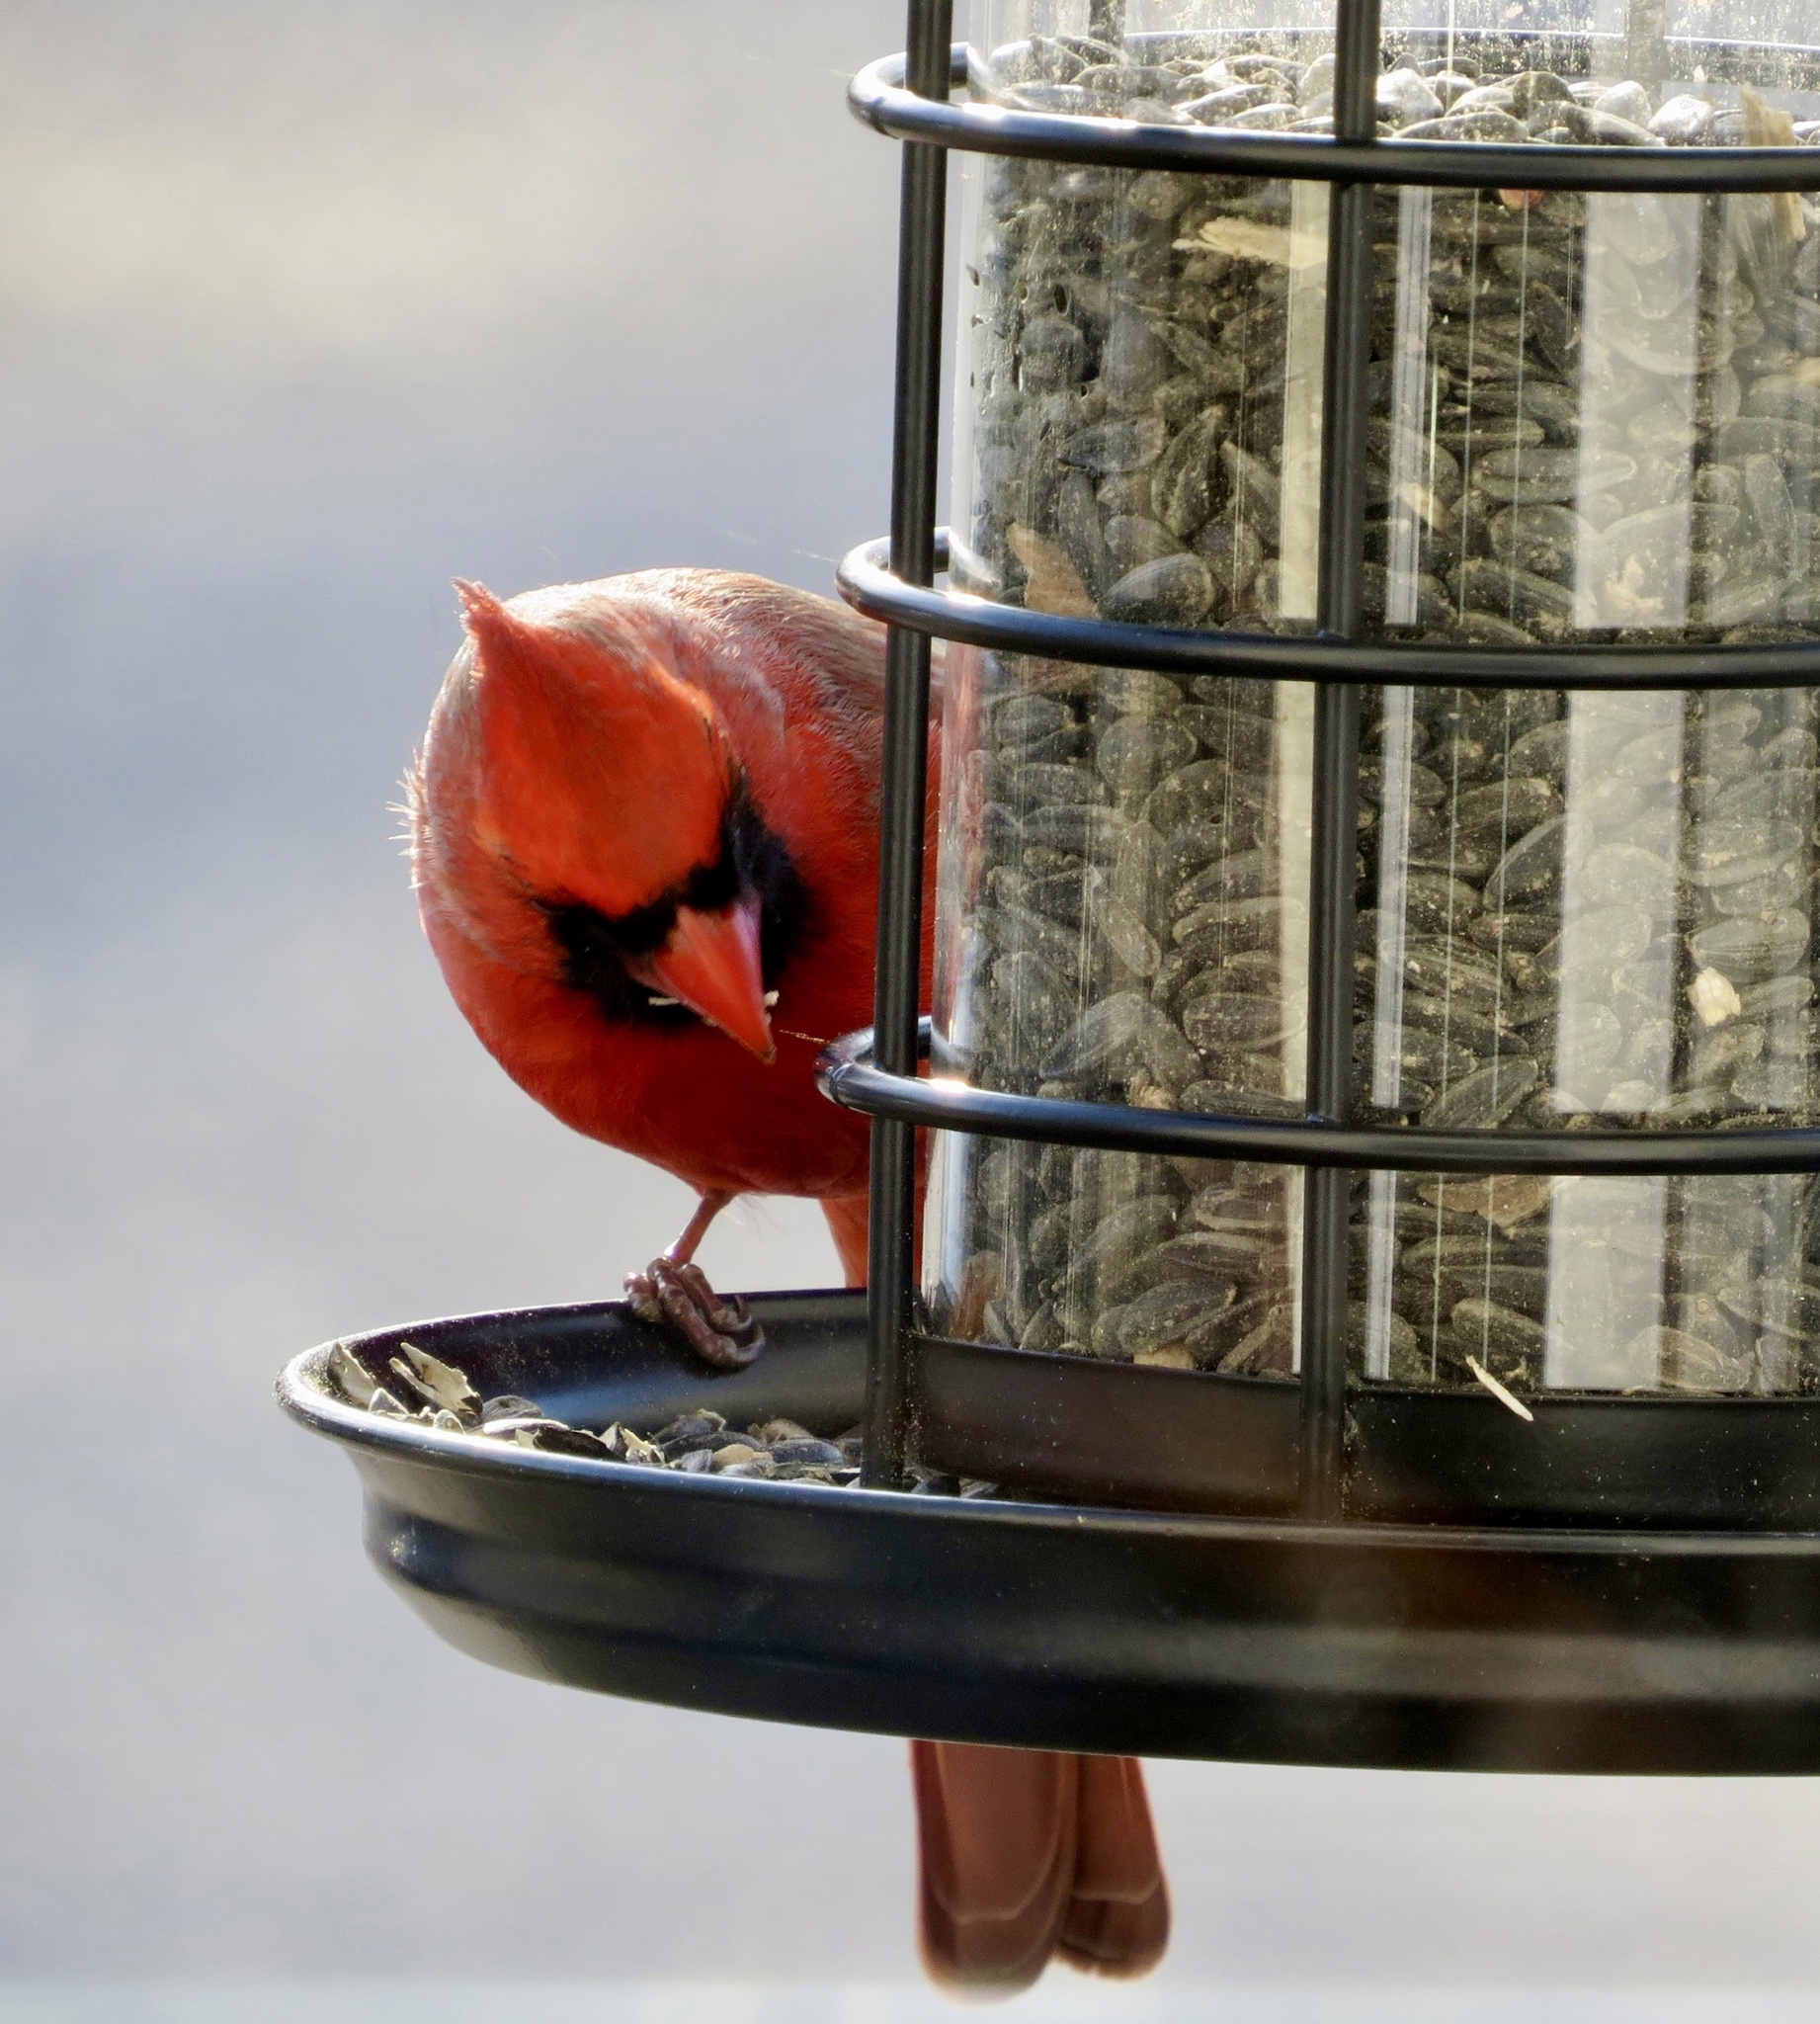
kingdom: Animalia
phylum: Chordata
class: Aves
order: Passeriformes
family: Cardinalidae
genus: Cardinalis
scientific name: Cardinalis cardinalis
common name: Northern cardinal
